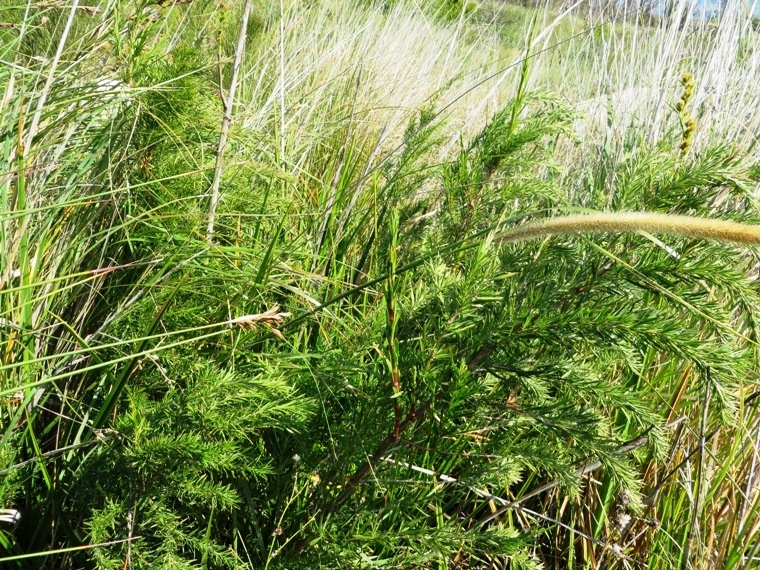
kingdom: Plantae
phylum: Tracheophyta
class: Magnoliopsida
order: Rosales
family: Rosaceae
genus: Cliffortia
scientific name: Cliffortia strobilifera
